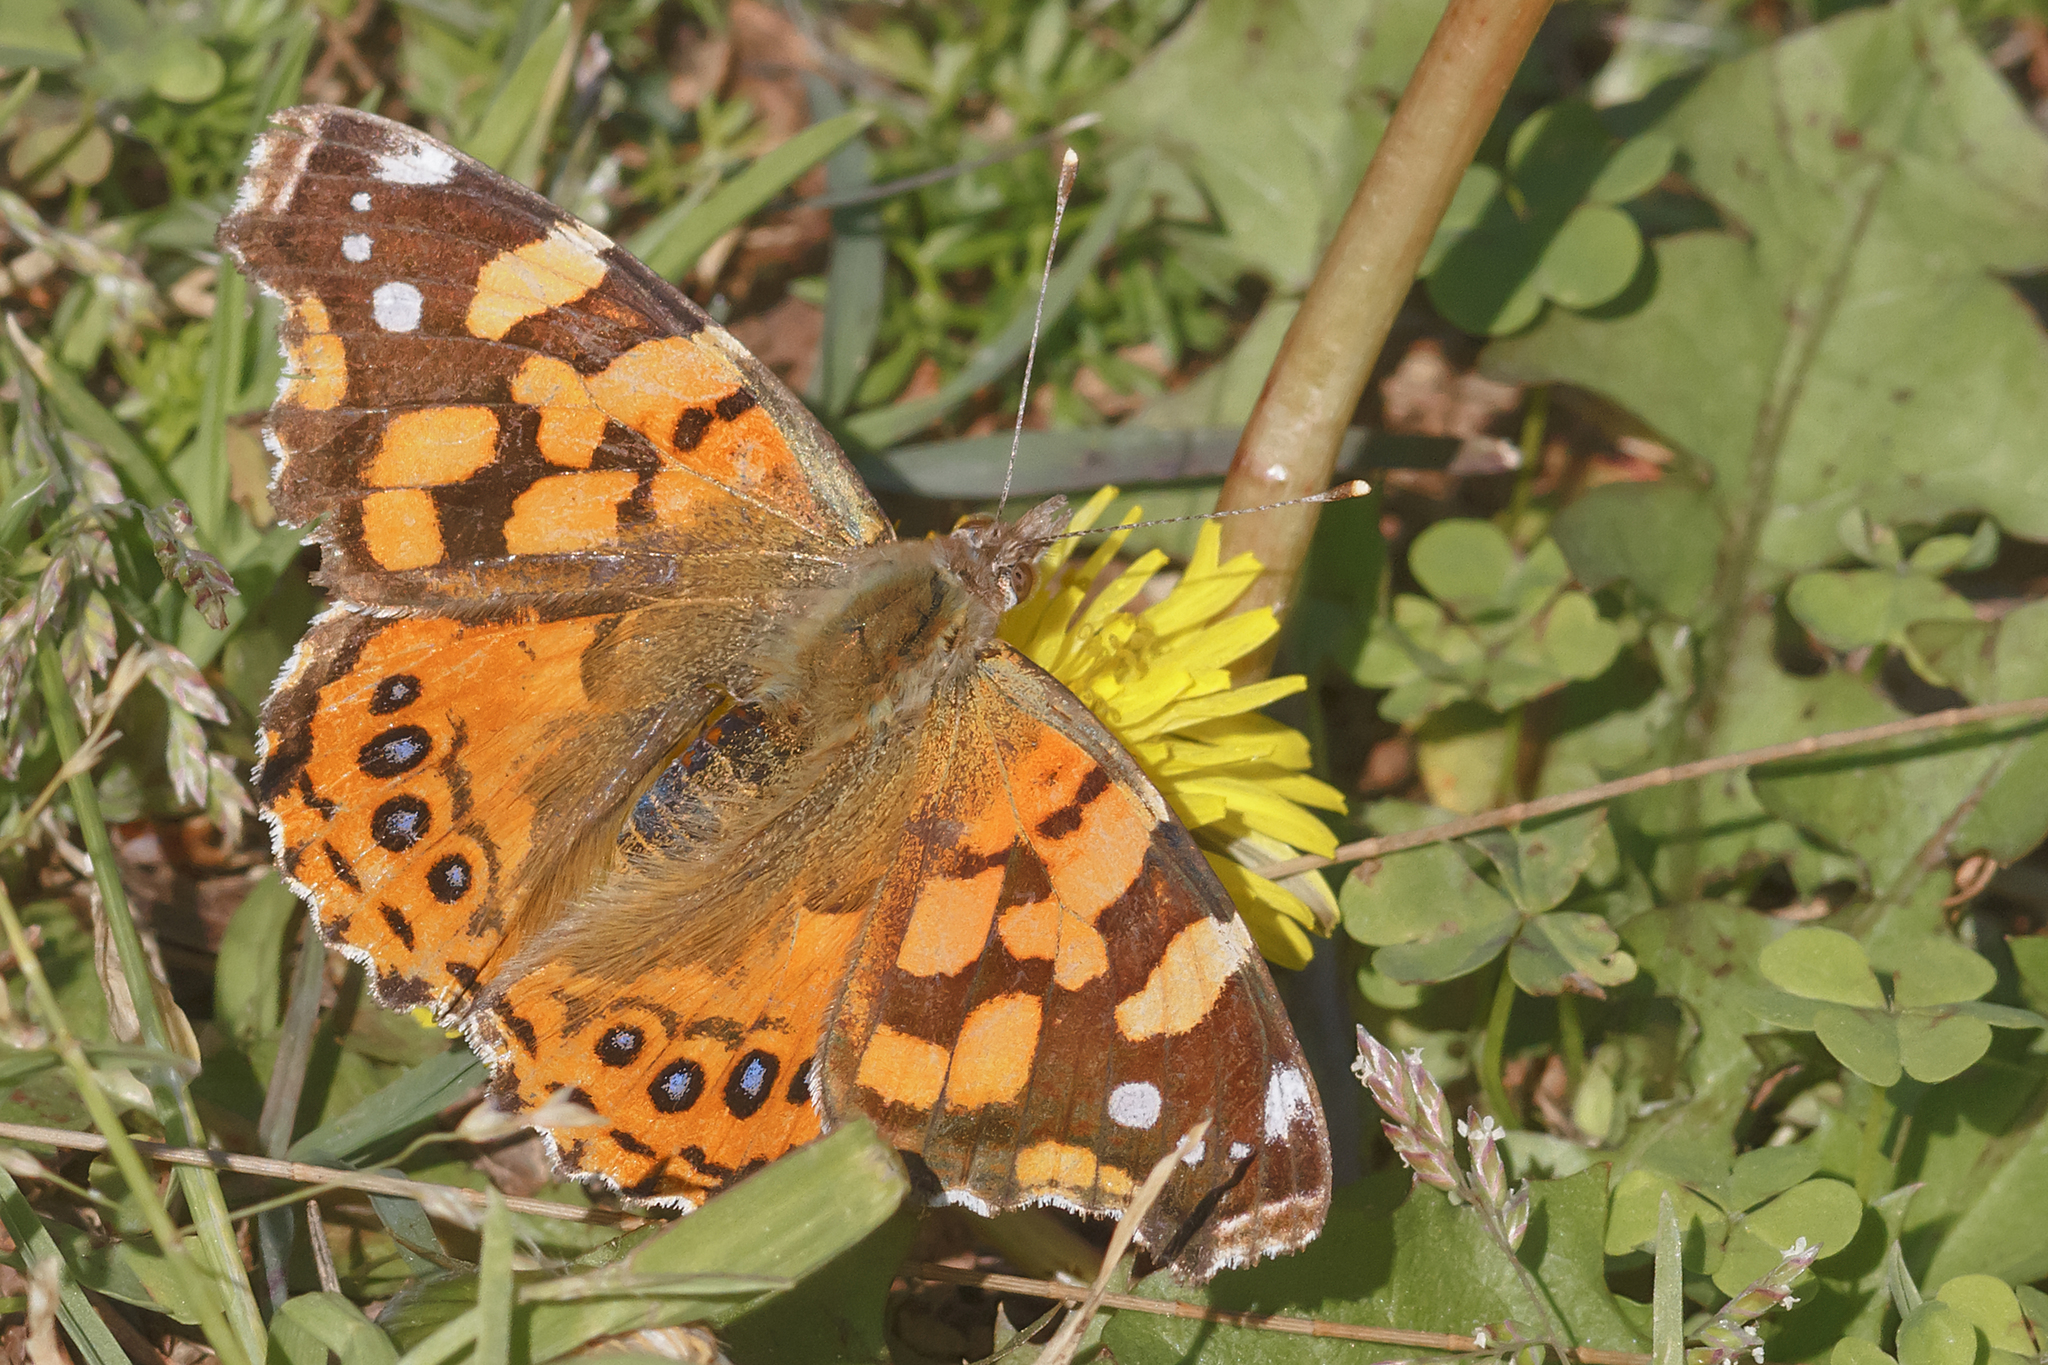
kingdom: Animalia
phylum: Arthropoda
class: Insecta
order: Lepidoptera
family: Nymphalidae
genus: Vanessa
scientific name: Vanessa carye
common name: Subtropical lady
